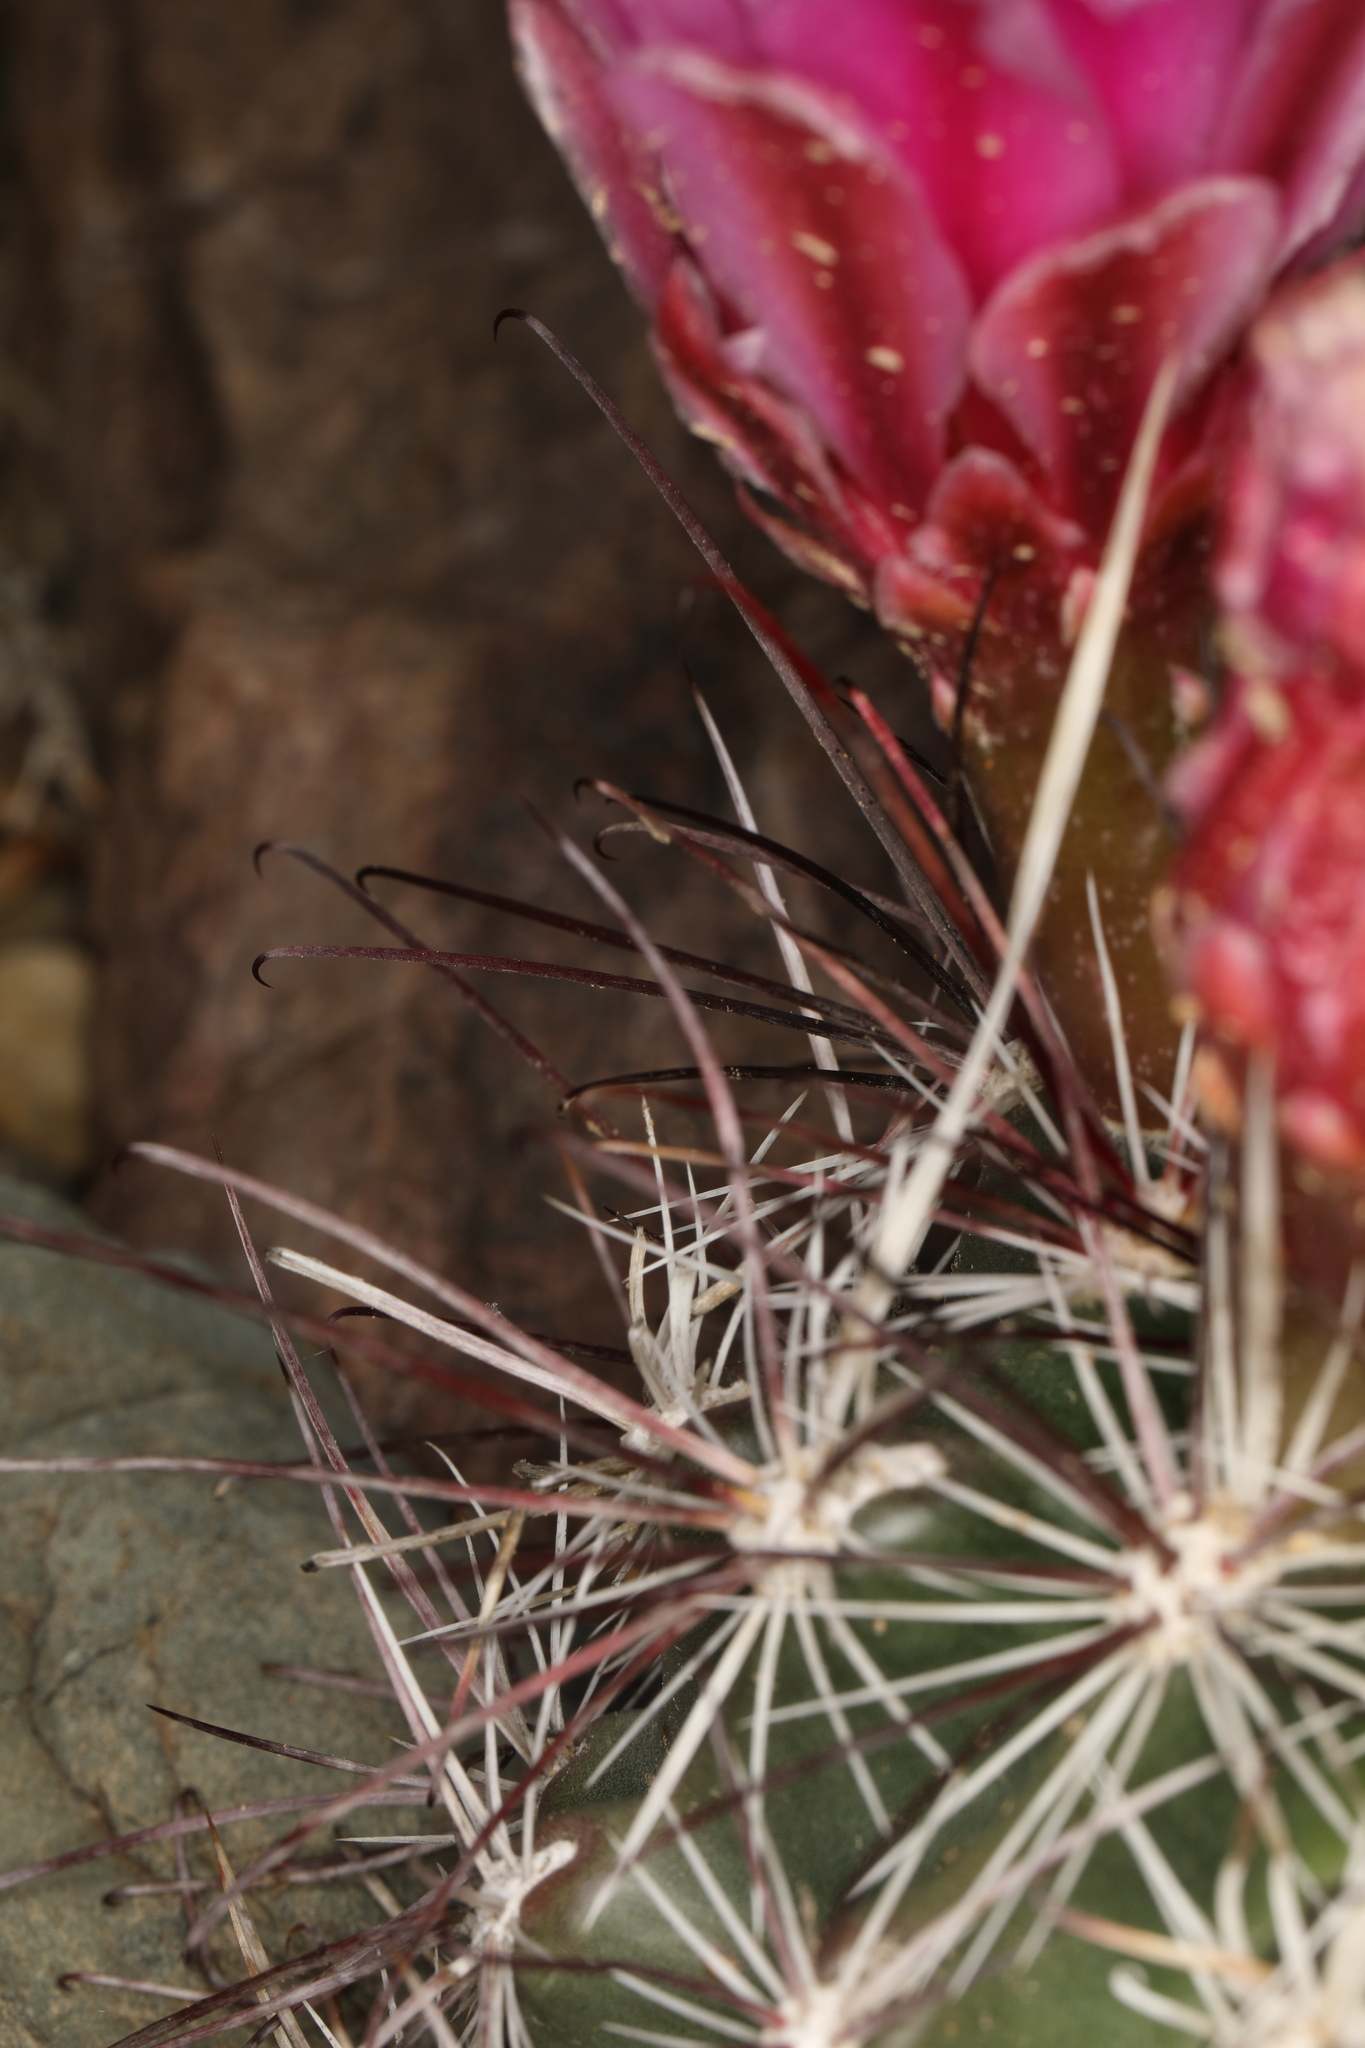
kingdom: Plantae
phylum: Tracheophyta
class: Magnoliopsida
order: Caryophyllales
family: Cactaceae
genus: Sclerocactus
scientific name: Sclerocactus polyancistrus
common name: Mohave fishhook cactus
